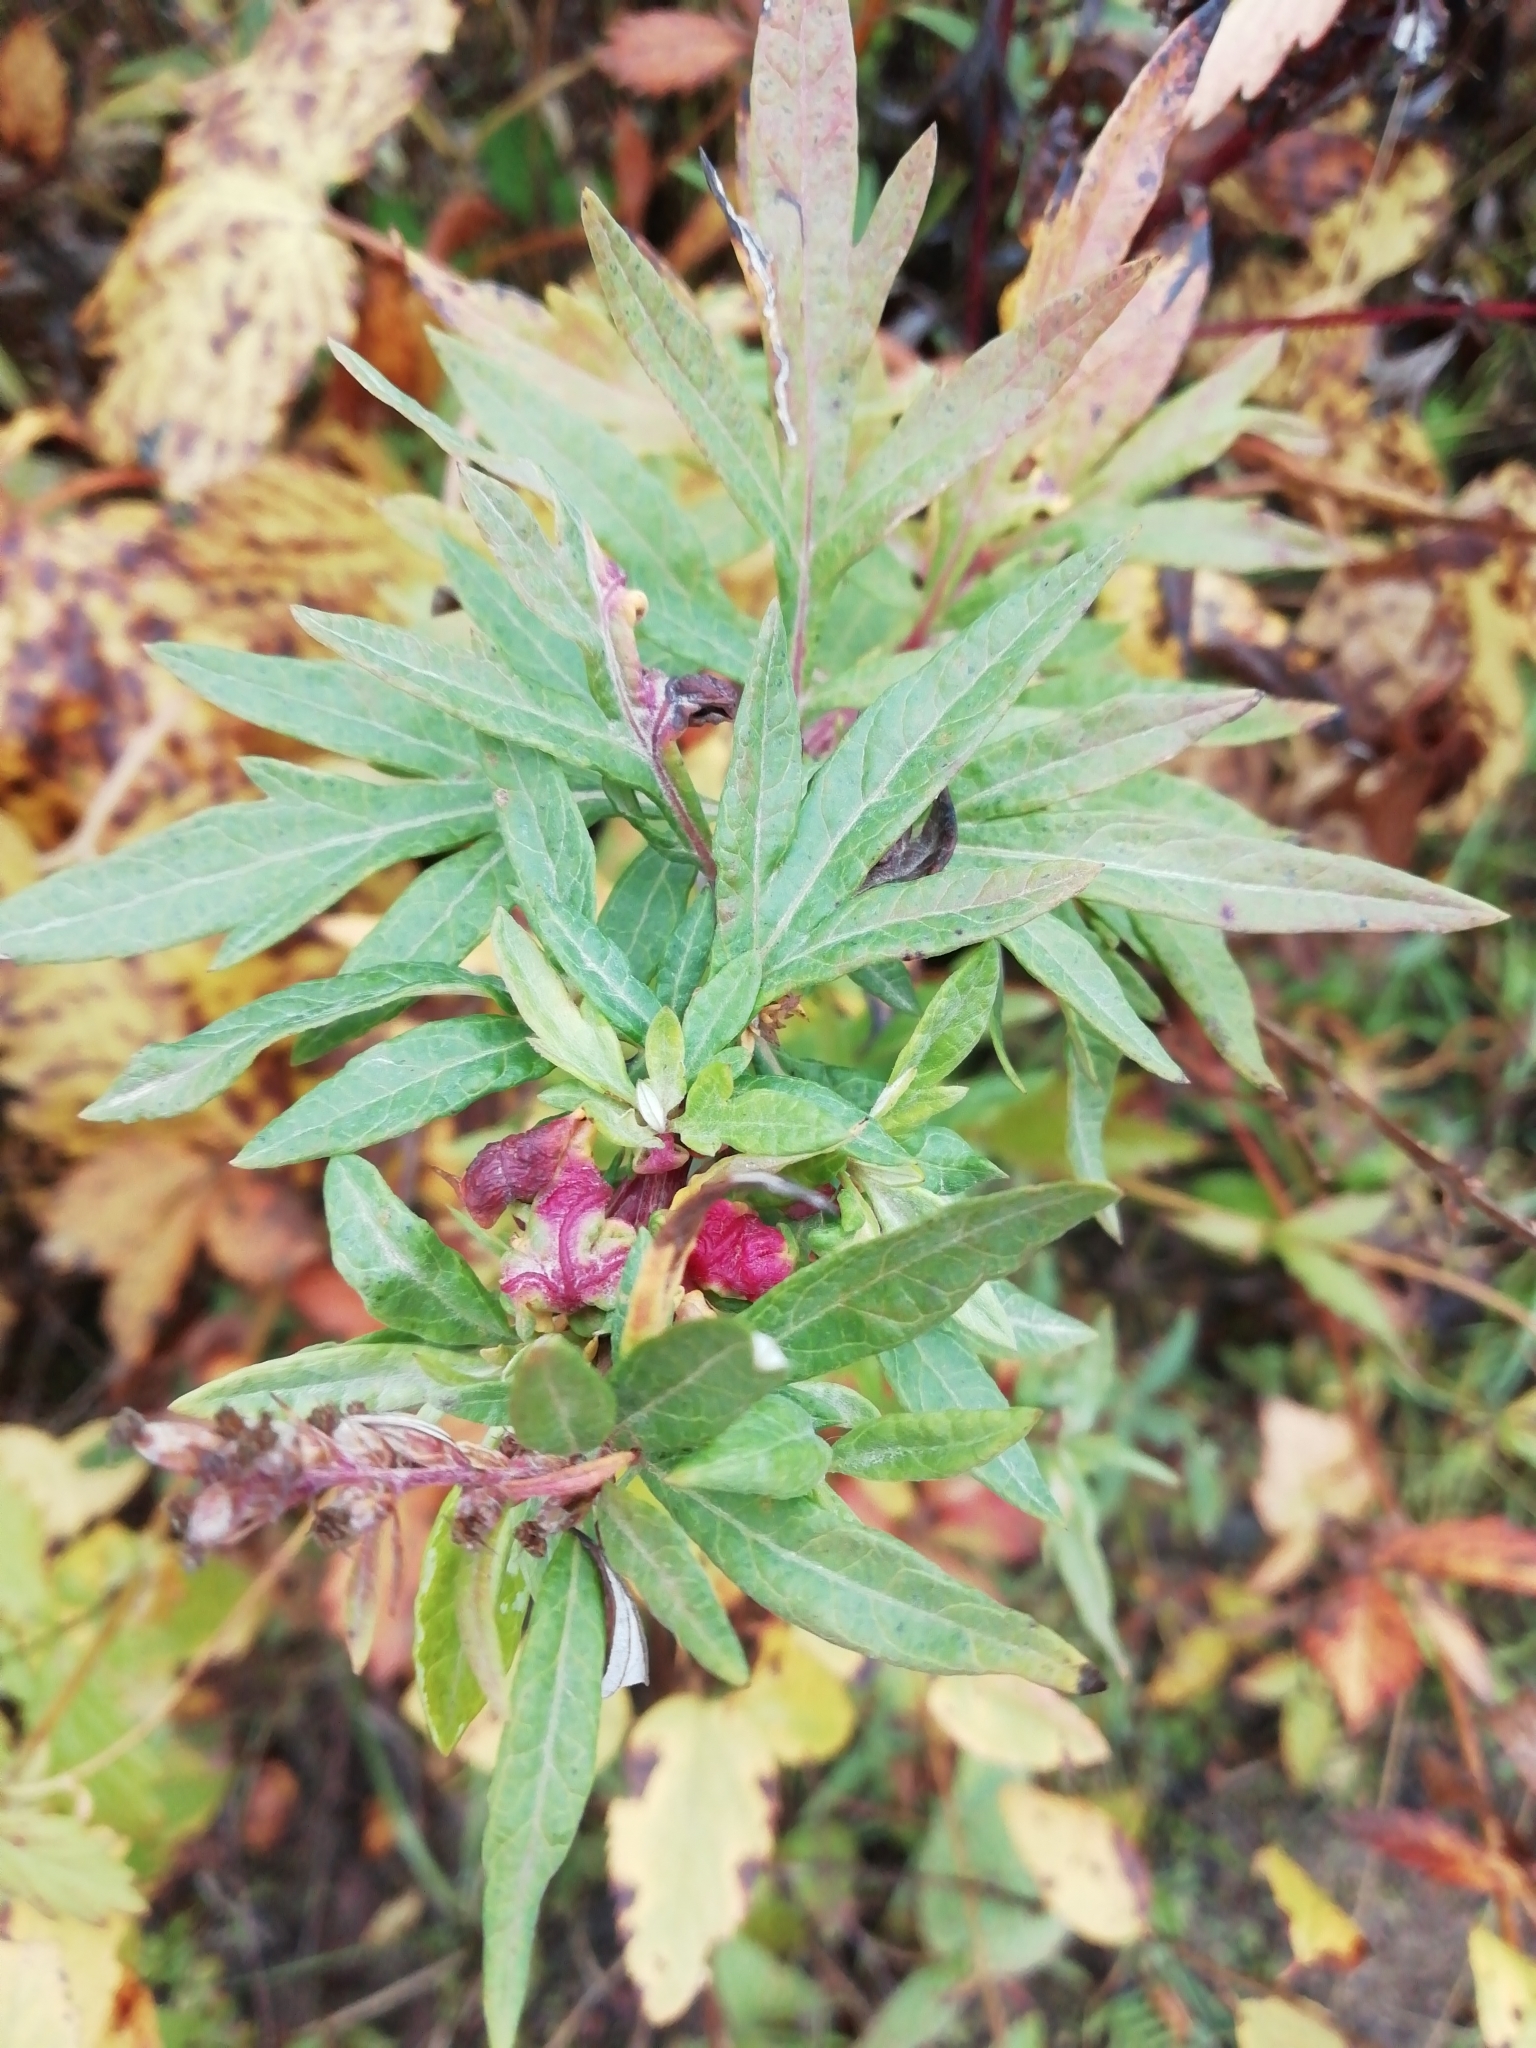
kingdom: Plantae
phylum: Tracheophyta
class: Magnoliopsida
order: Asterales
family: Asteraceae
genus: Artemisia
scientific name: Artemisia vulgaris
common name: Mugwort
